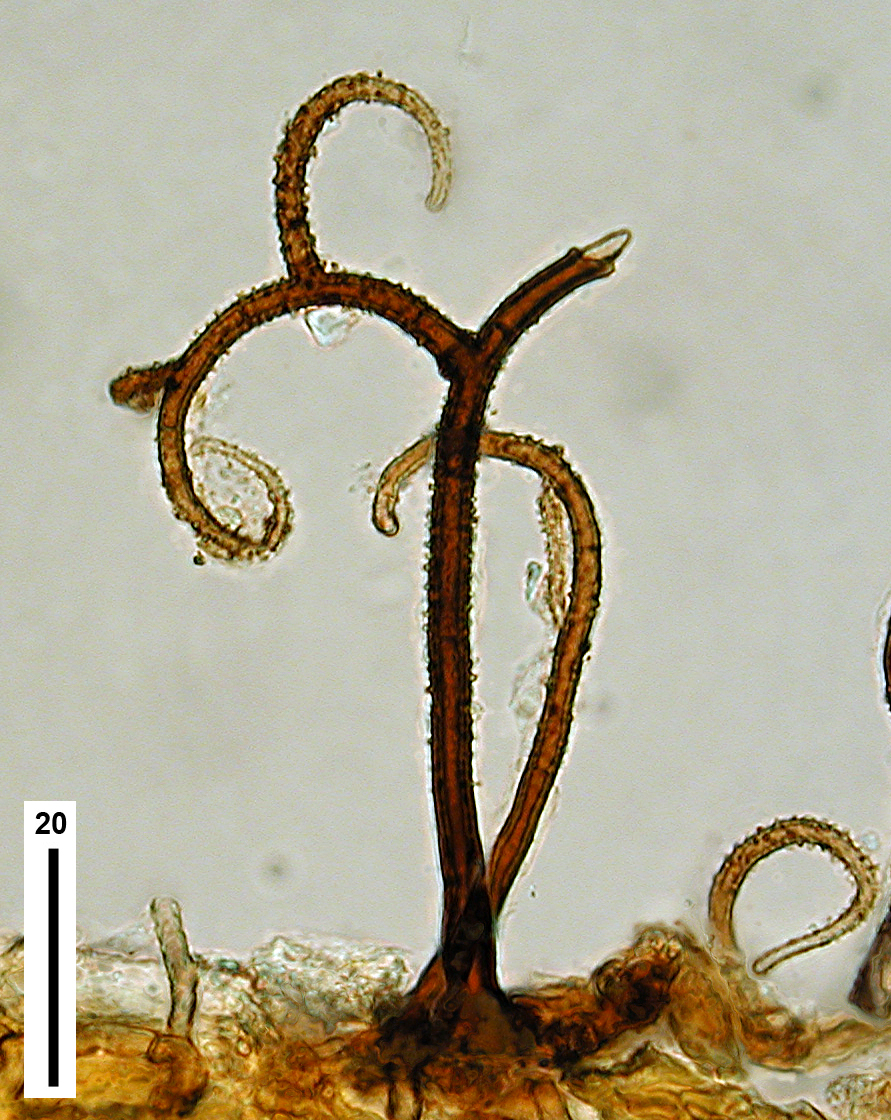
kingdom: Fungi
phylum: Ascomycota
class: Sordariomycetes
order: Xylariales
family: Microdochiaceae
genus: Gyrothrix
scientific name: Gyrothrix circinata
